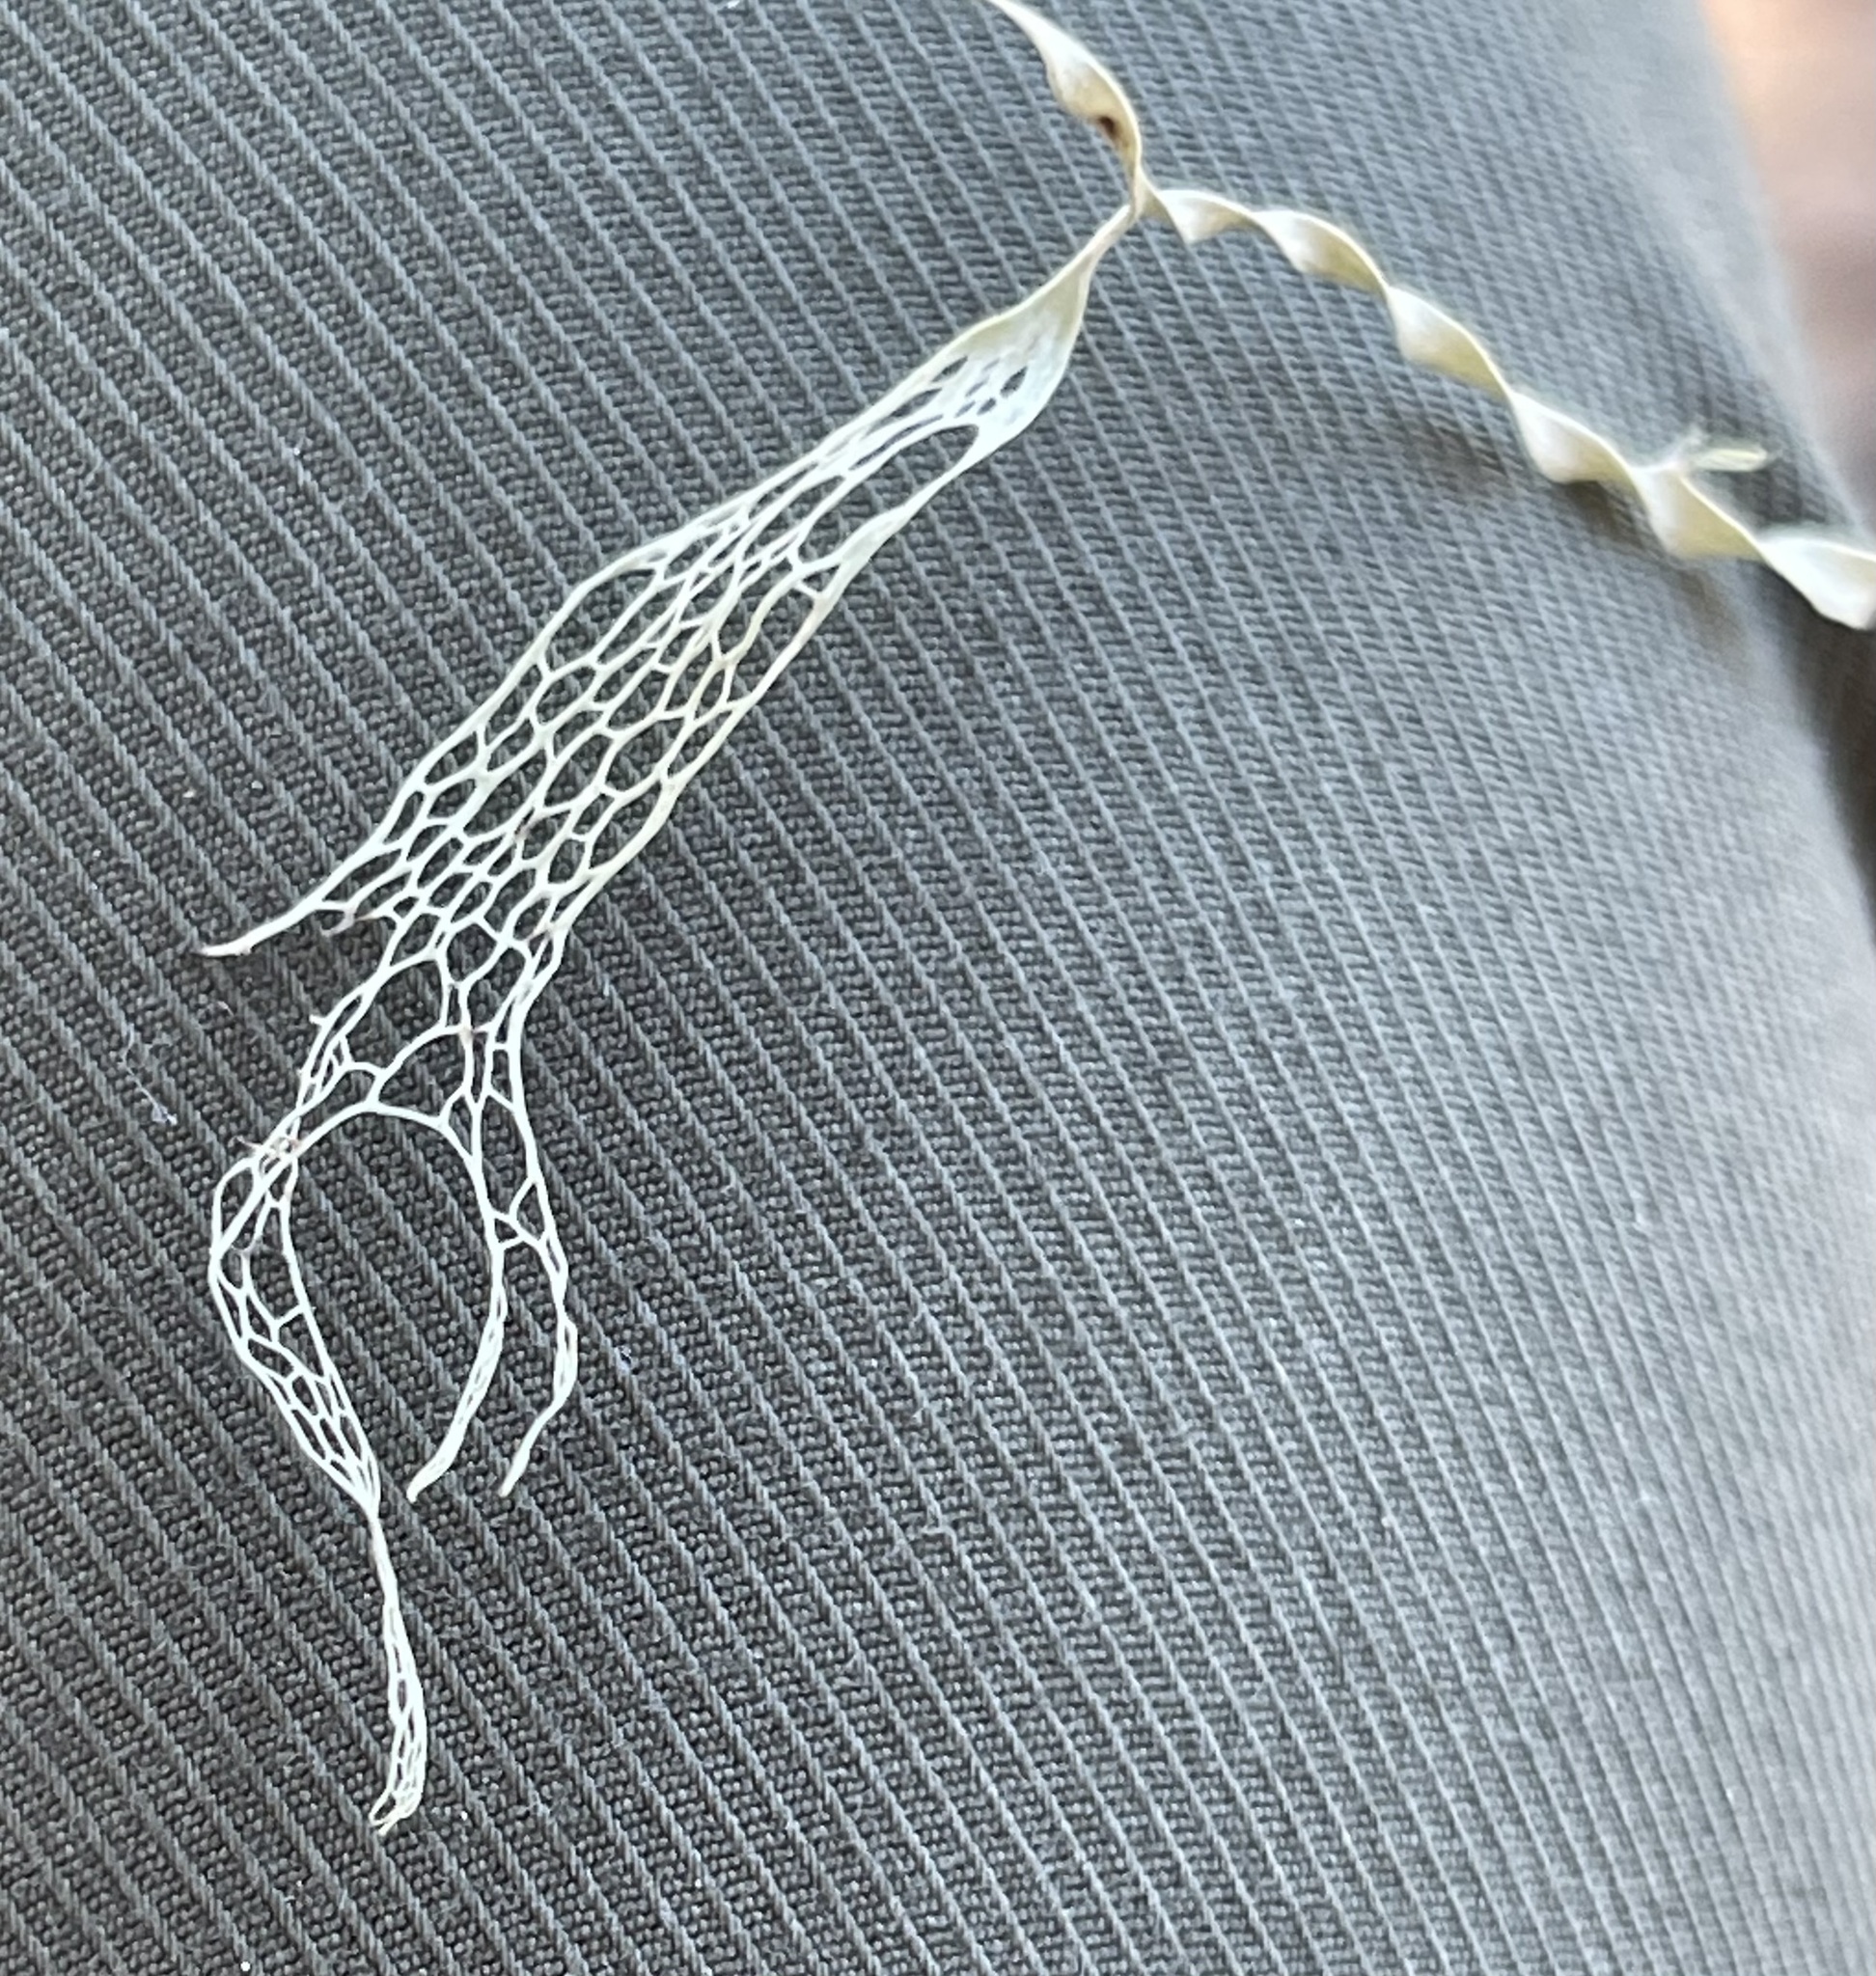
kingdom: Fungi
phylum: Ascomycota
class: Lecanoromycetes
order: Lecanorales
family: Ramalinaceae
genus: Ramalina
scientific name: Ramalina menziesii
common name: Lace lichen
